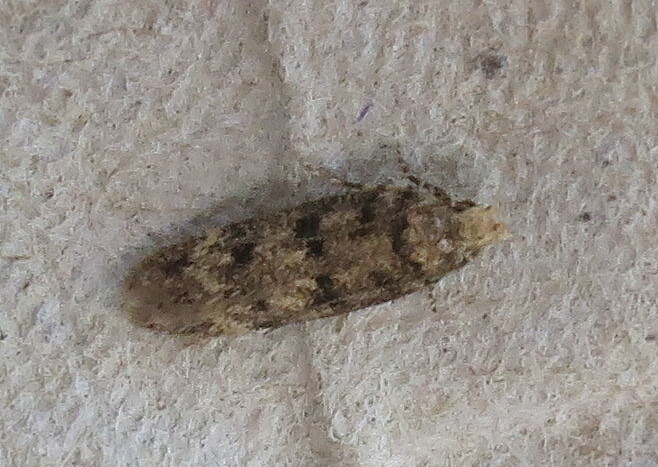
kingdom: Animalia
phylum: Arthropoda
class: Insecta
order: Lepidoptera
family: Gelechiidae
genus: Bryotropha
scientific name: Bryotropha domestica
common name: House groundling
